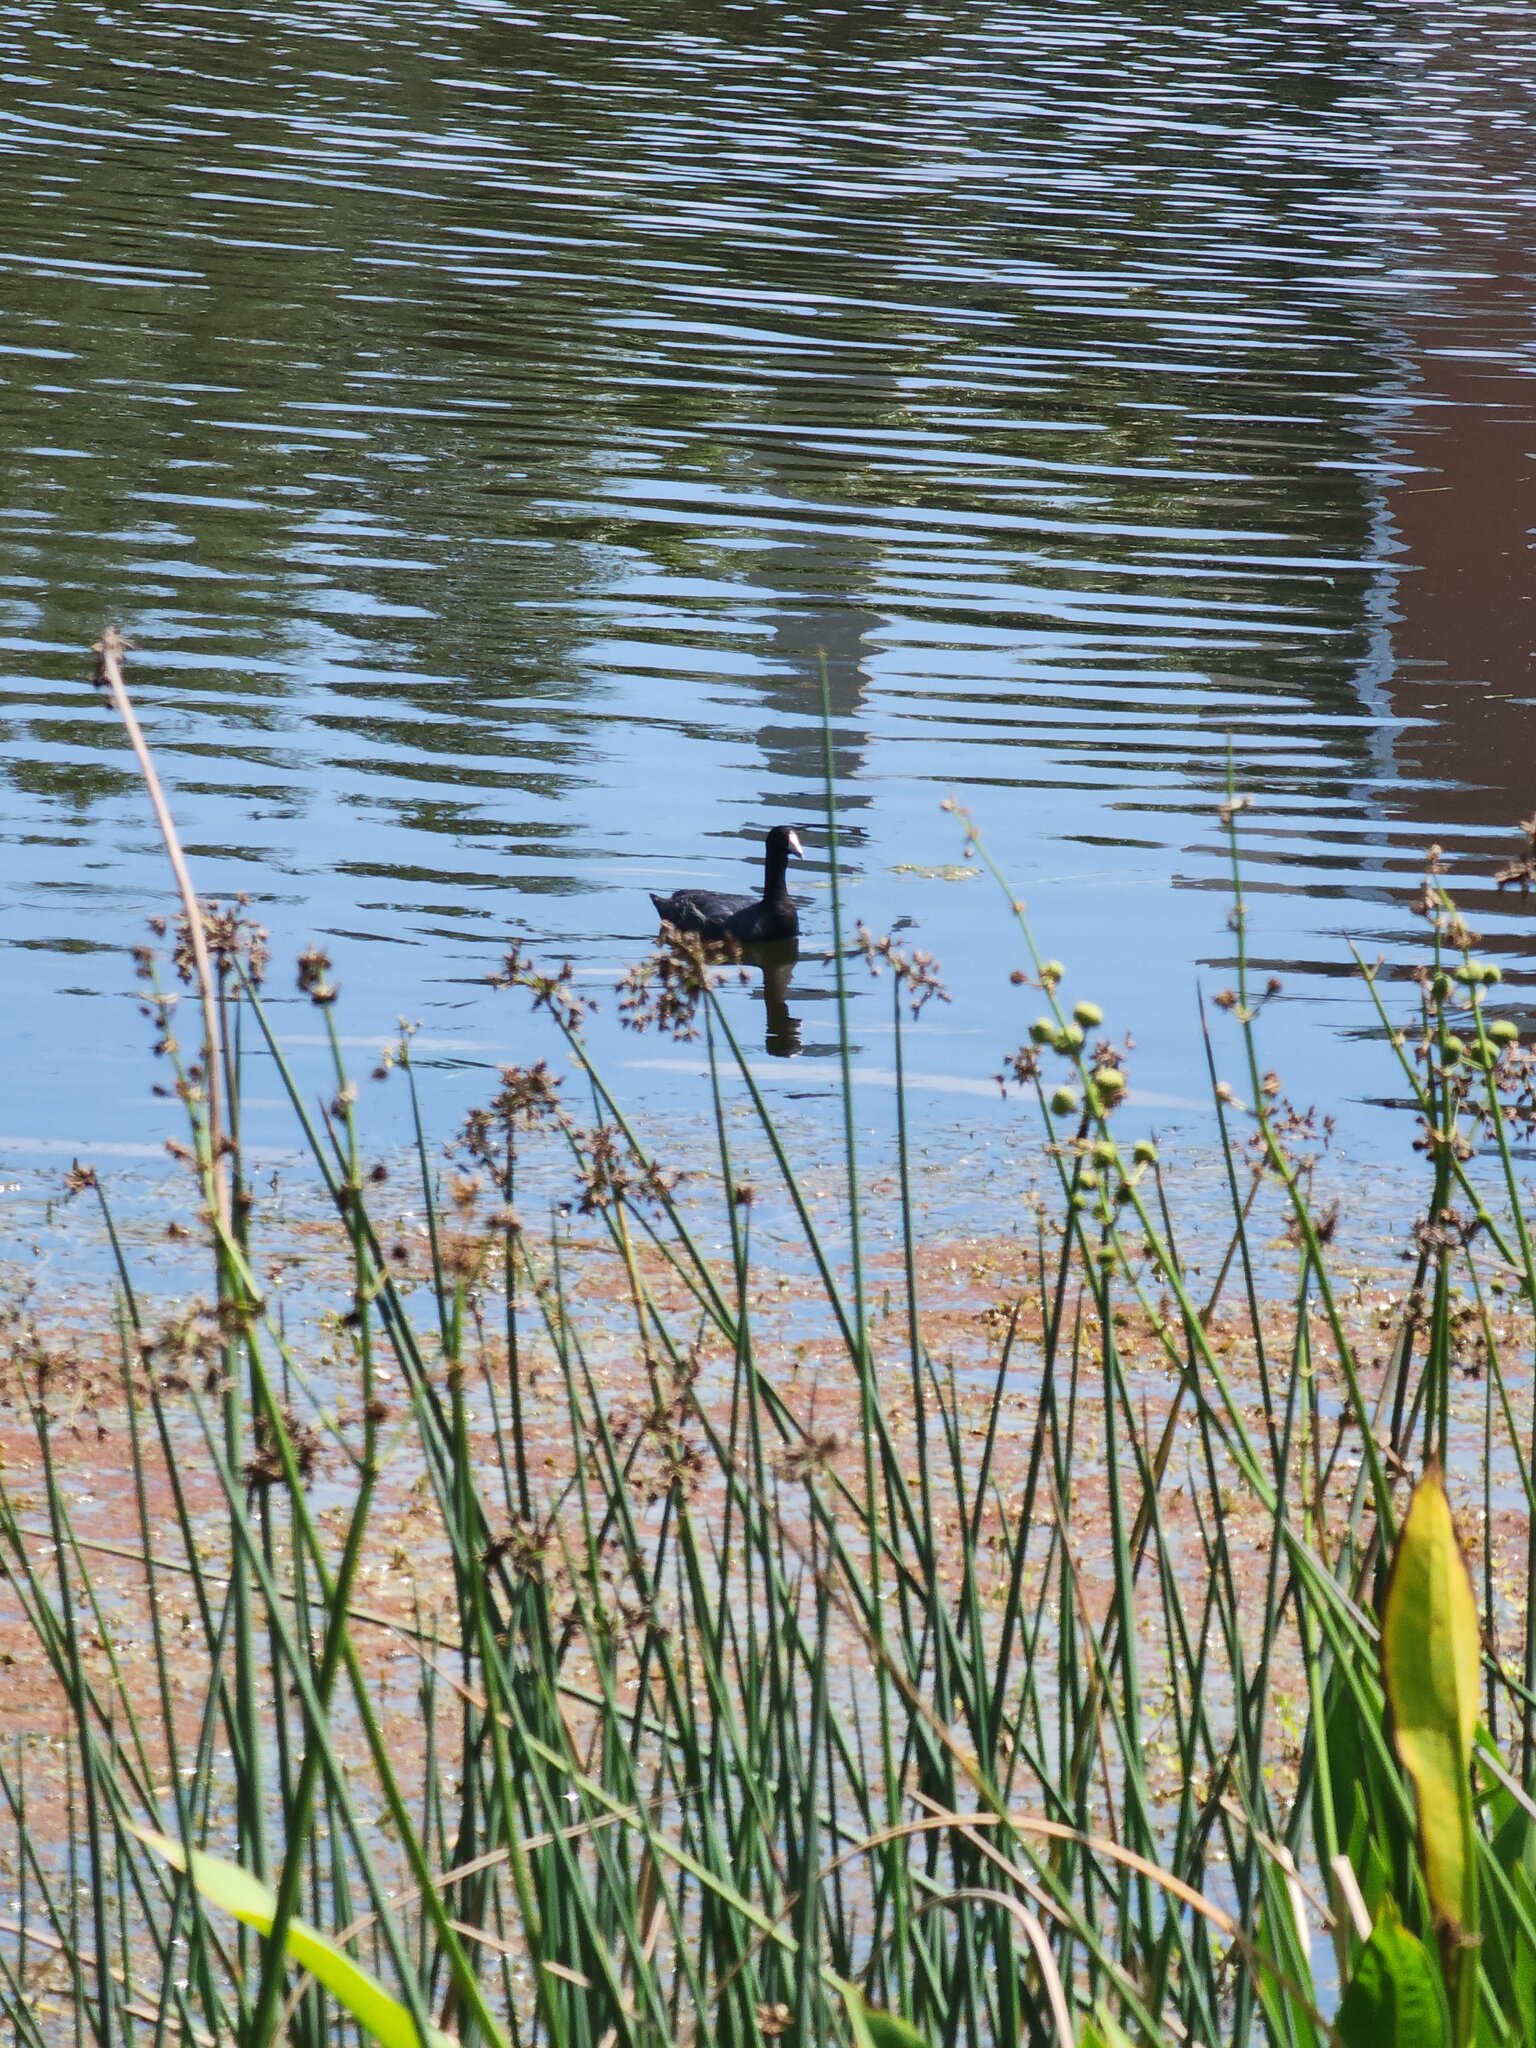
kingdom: Animalia
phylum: Chordata
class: Aves
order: Gruiformes
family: Rallidae
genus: Fulica
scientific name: Fulica americana
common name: American coot
